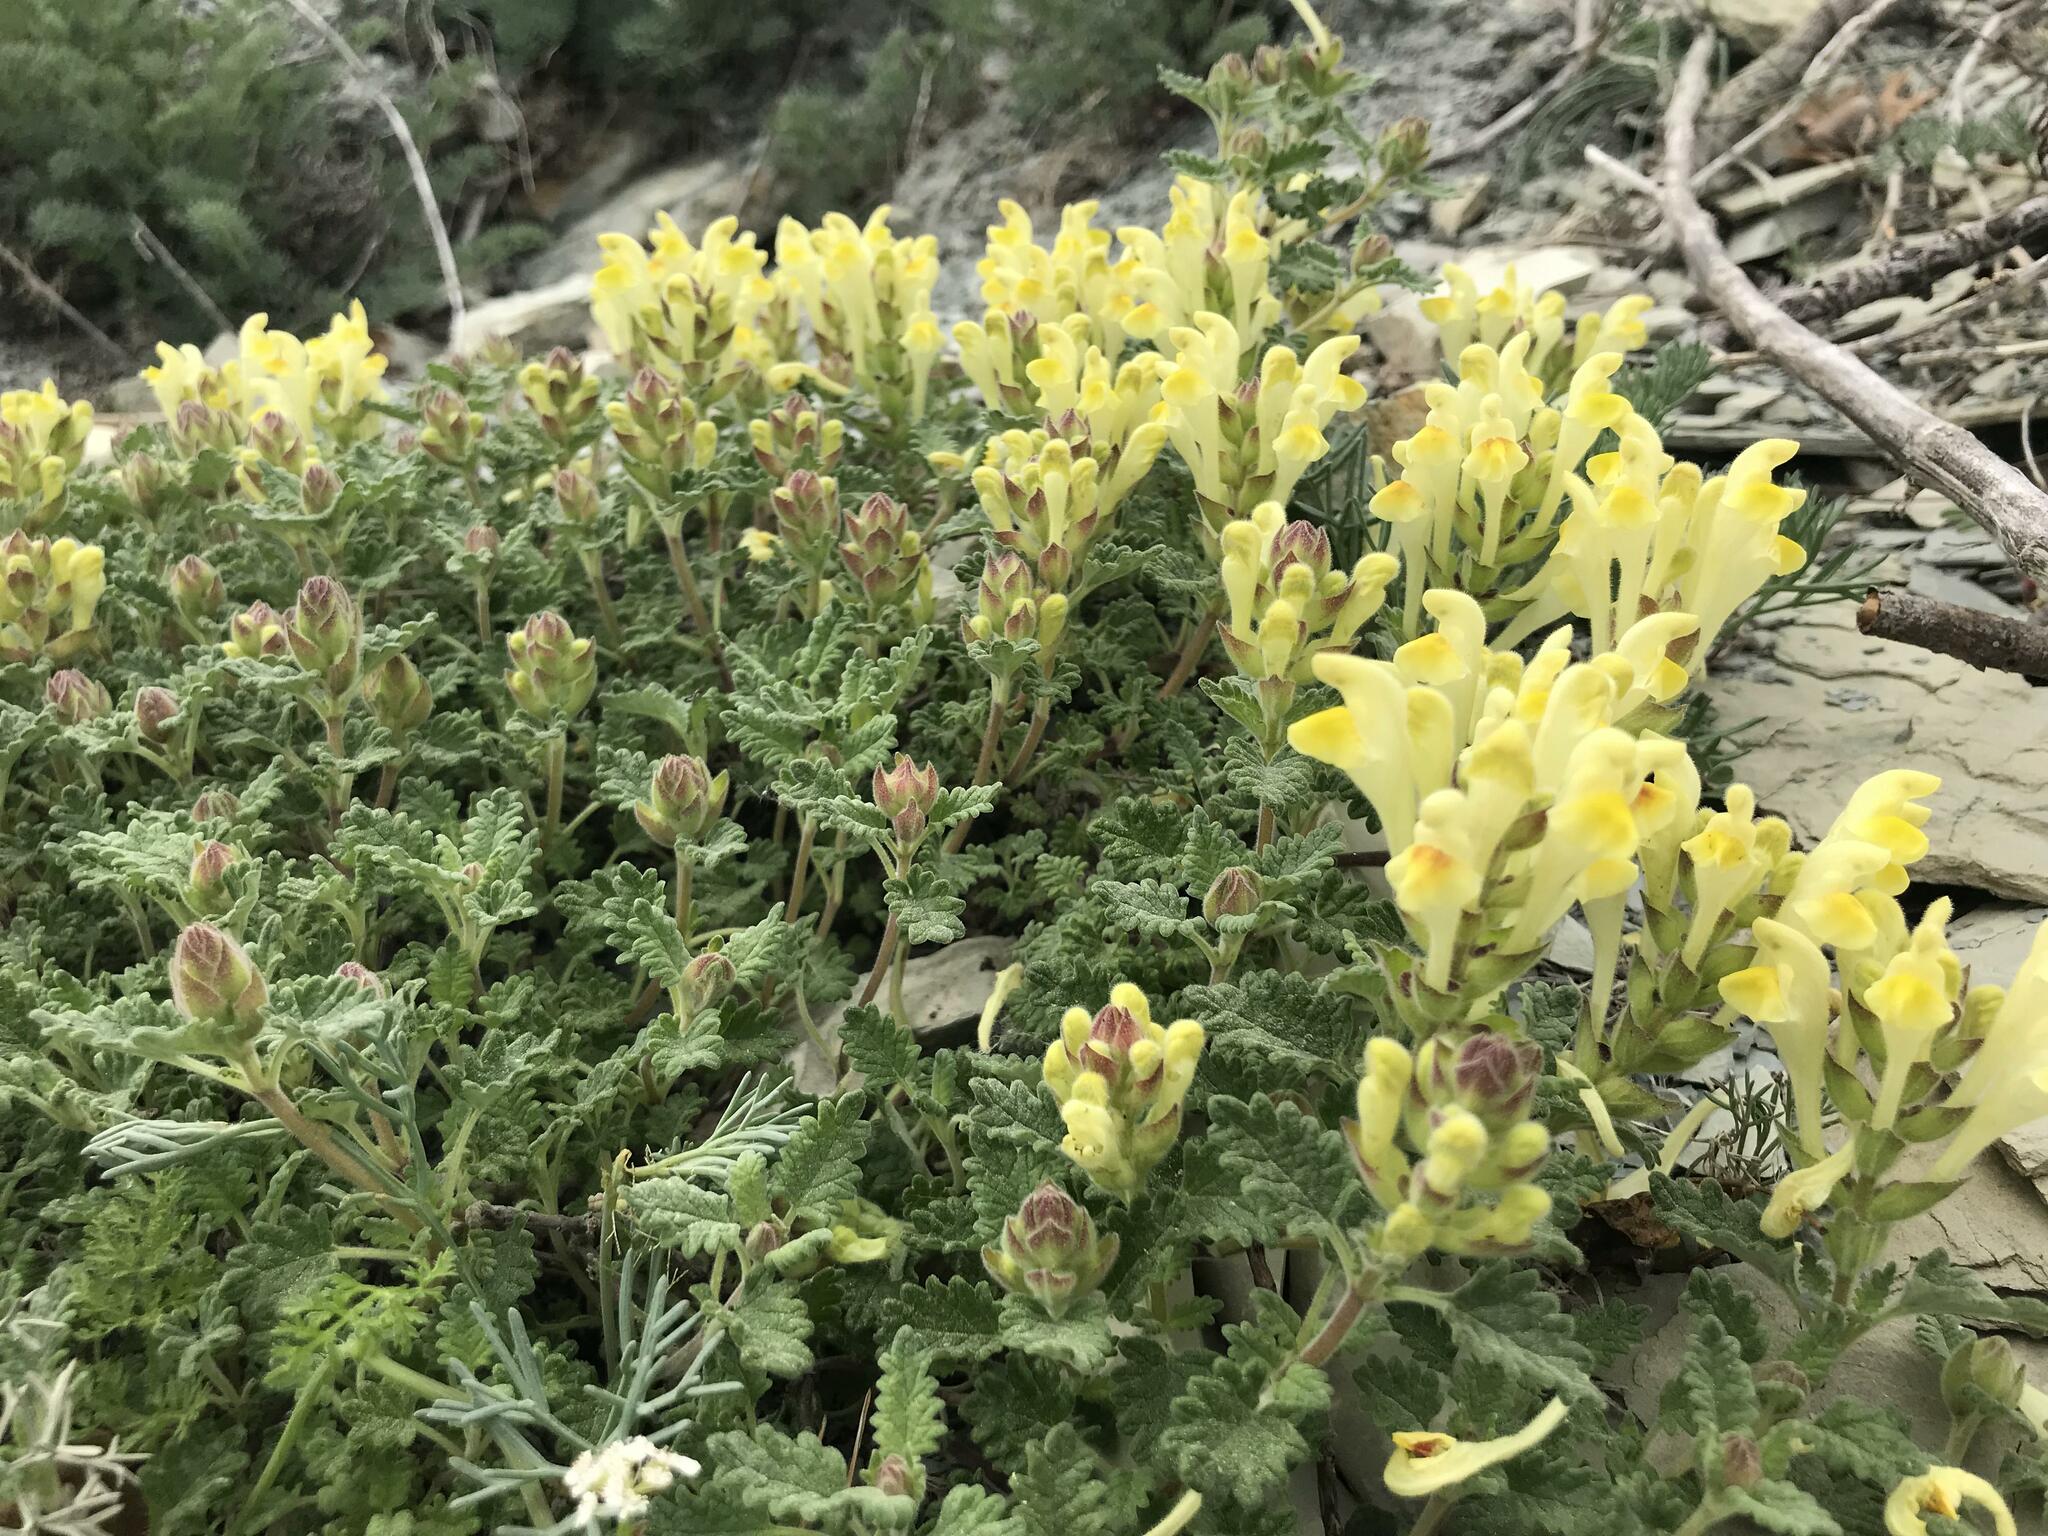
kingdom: Plantae
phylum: Tracheophyta
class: Magnoliopsida
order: Lamiales
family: Lamiaceae
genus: Scutellaria
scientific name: Scutellaria orientalis
